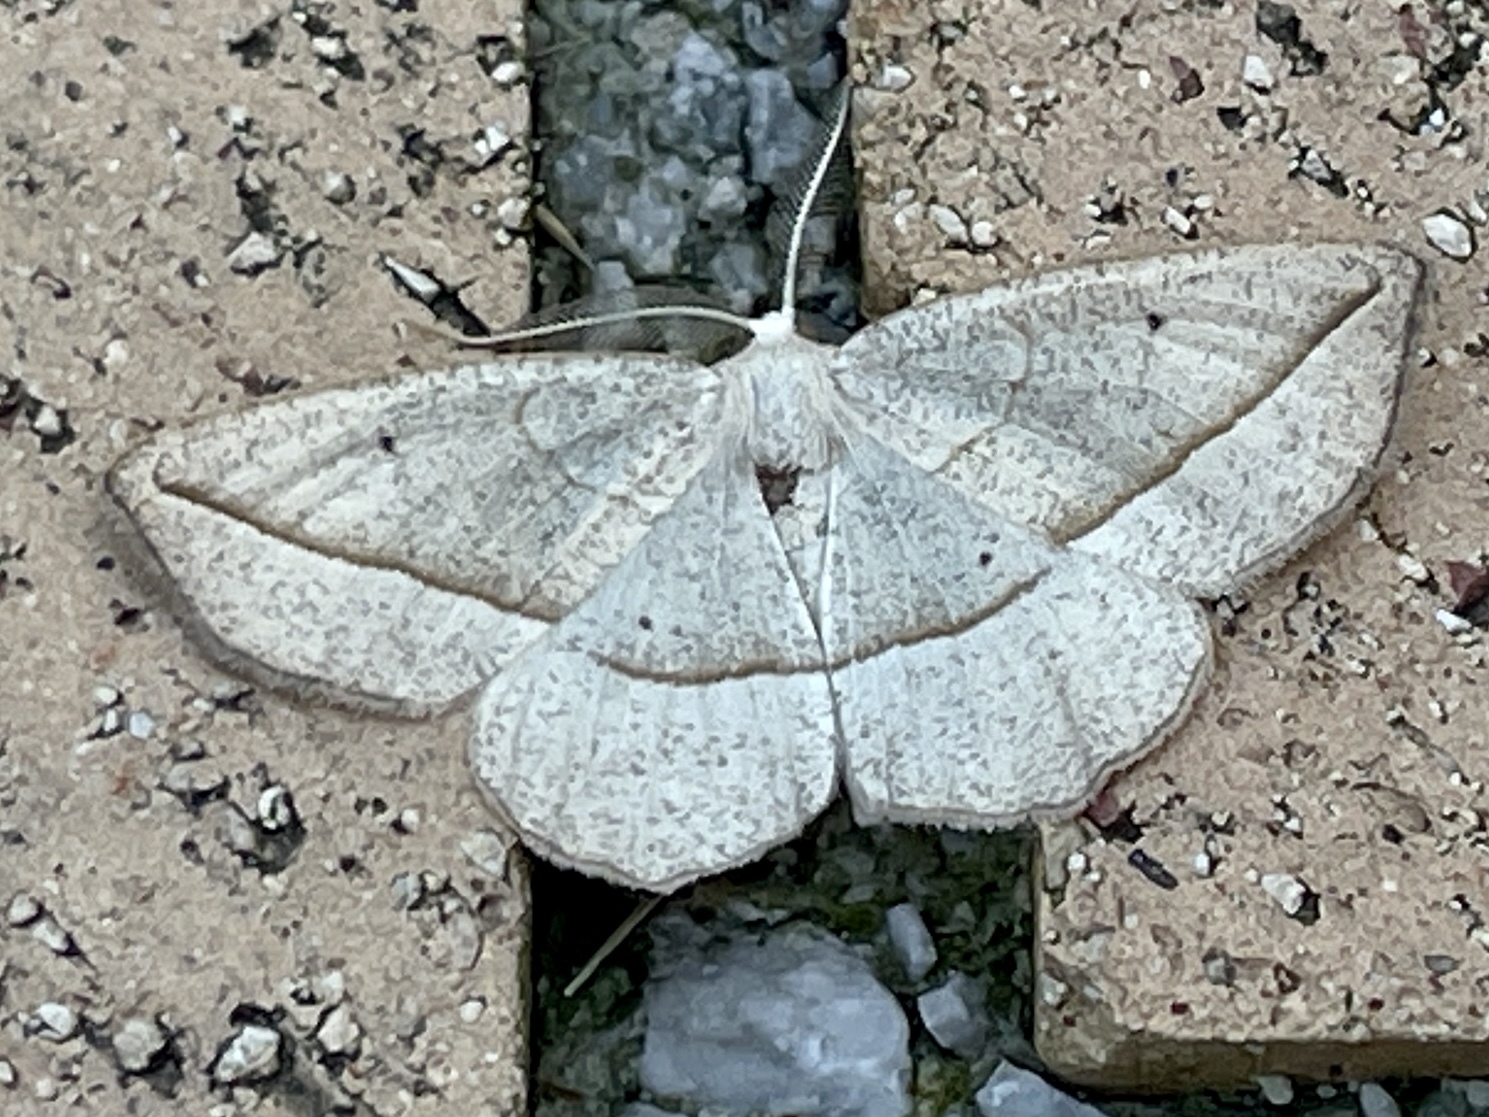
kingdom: Animalia
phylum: Arthropoda
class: Insecta
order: Lepidoptera
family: Geometridae
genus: Eusarca
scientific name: Eusarca confusaria
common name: Confused eusarca
